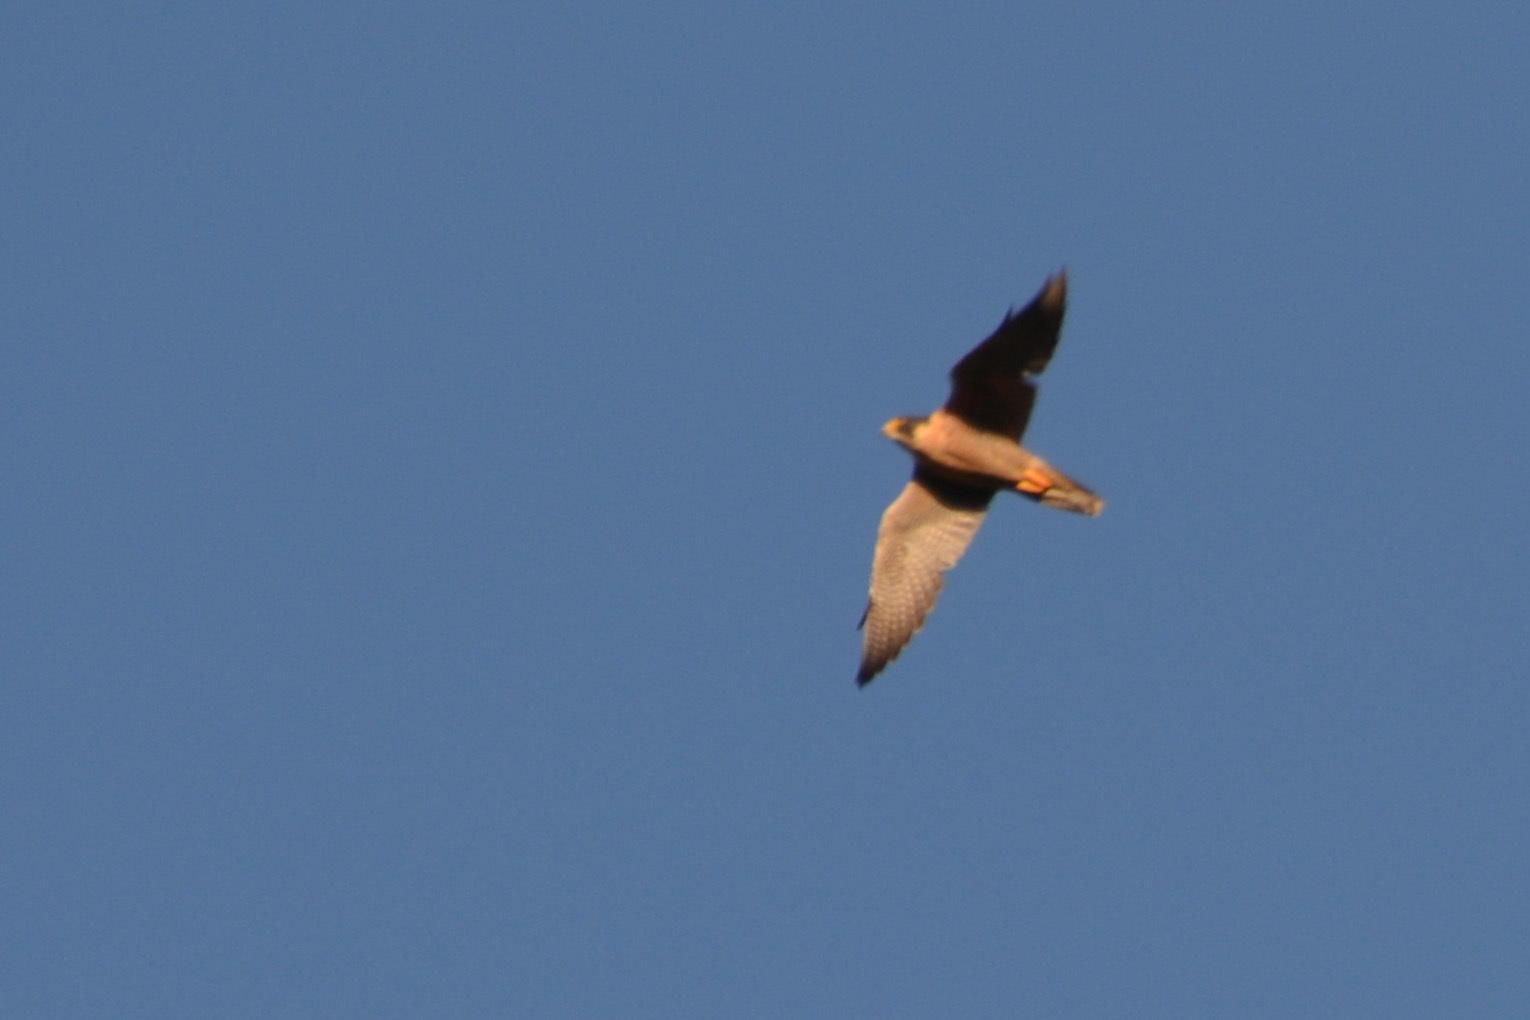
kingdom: Animalia
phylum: Chordata
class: Aves
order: Falconiformes
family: Falconidae
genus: Falco
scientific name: Falco peregrinus
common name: Peregrine falcon
